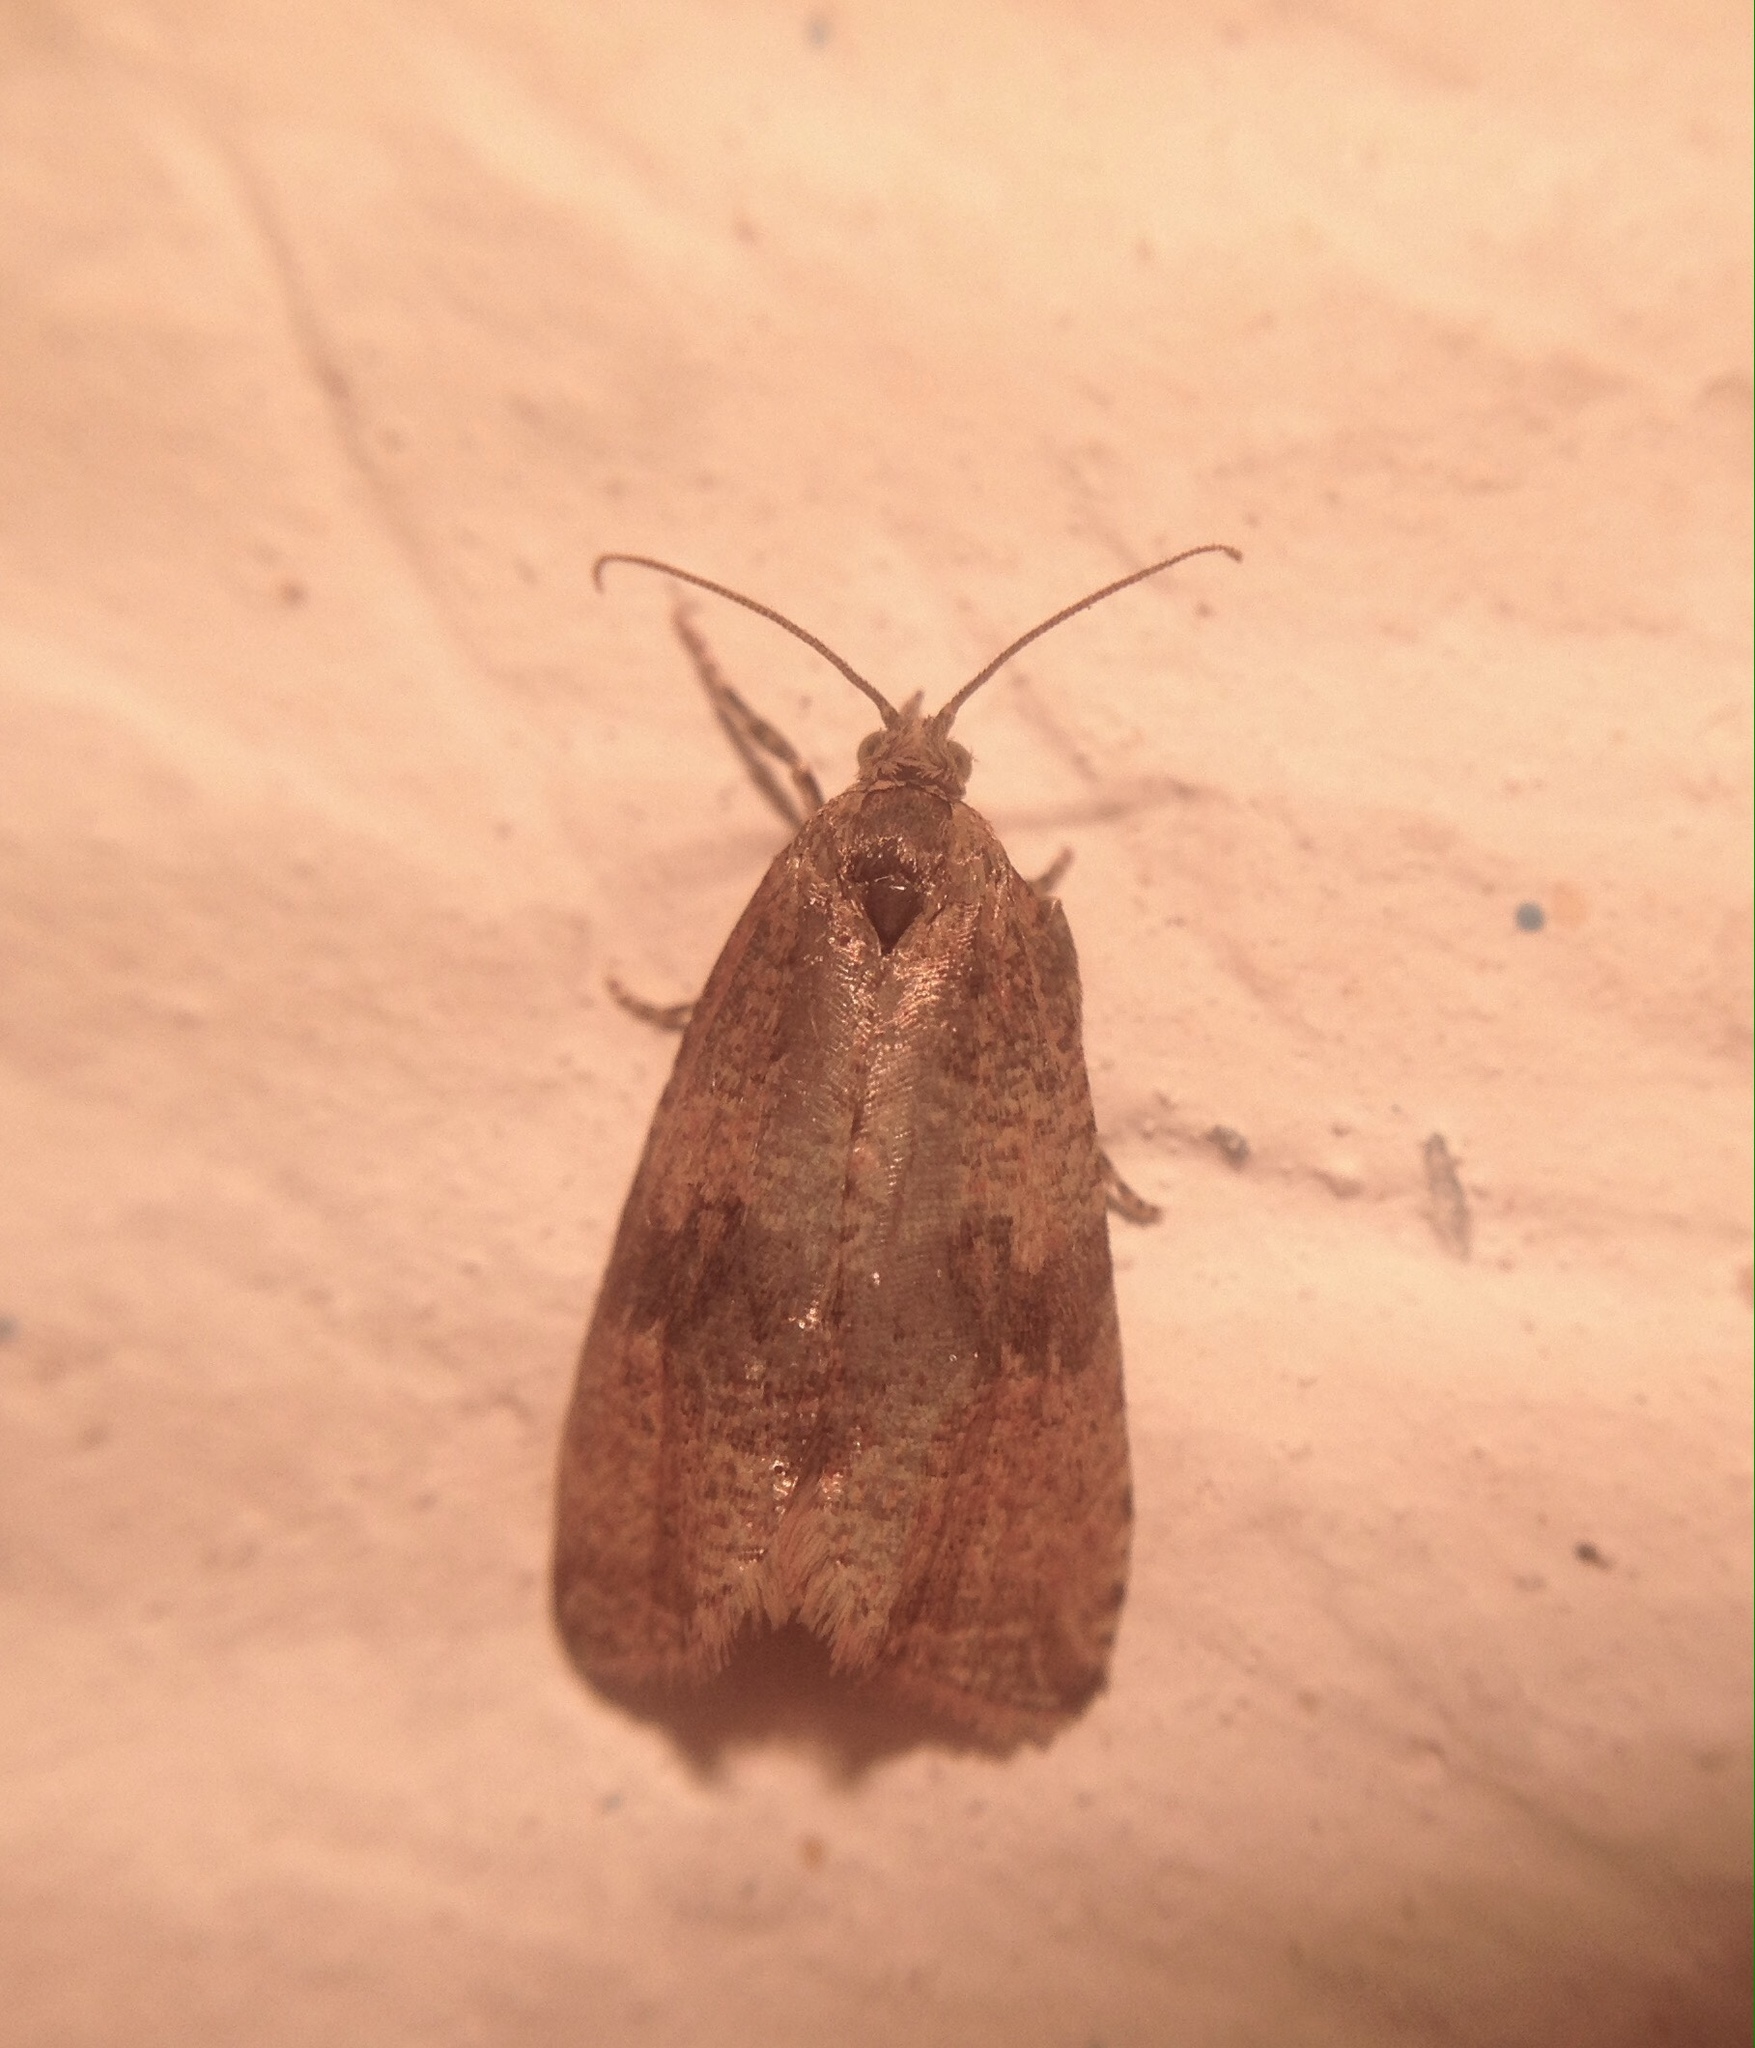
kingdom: Animalia
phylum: Arthropoda
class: Insecta
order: Lepidoptera
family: Tortricidae
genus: Celypha
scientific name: Celypha striana
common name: Barred marble
